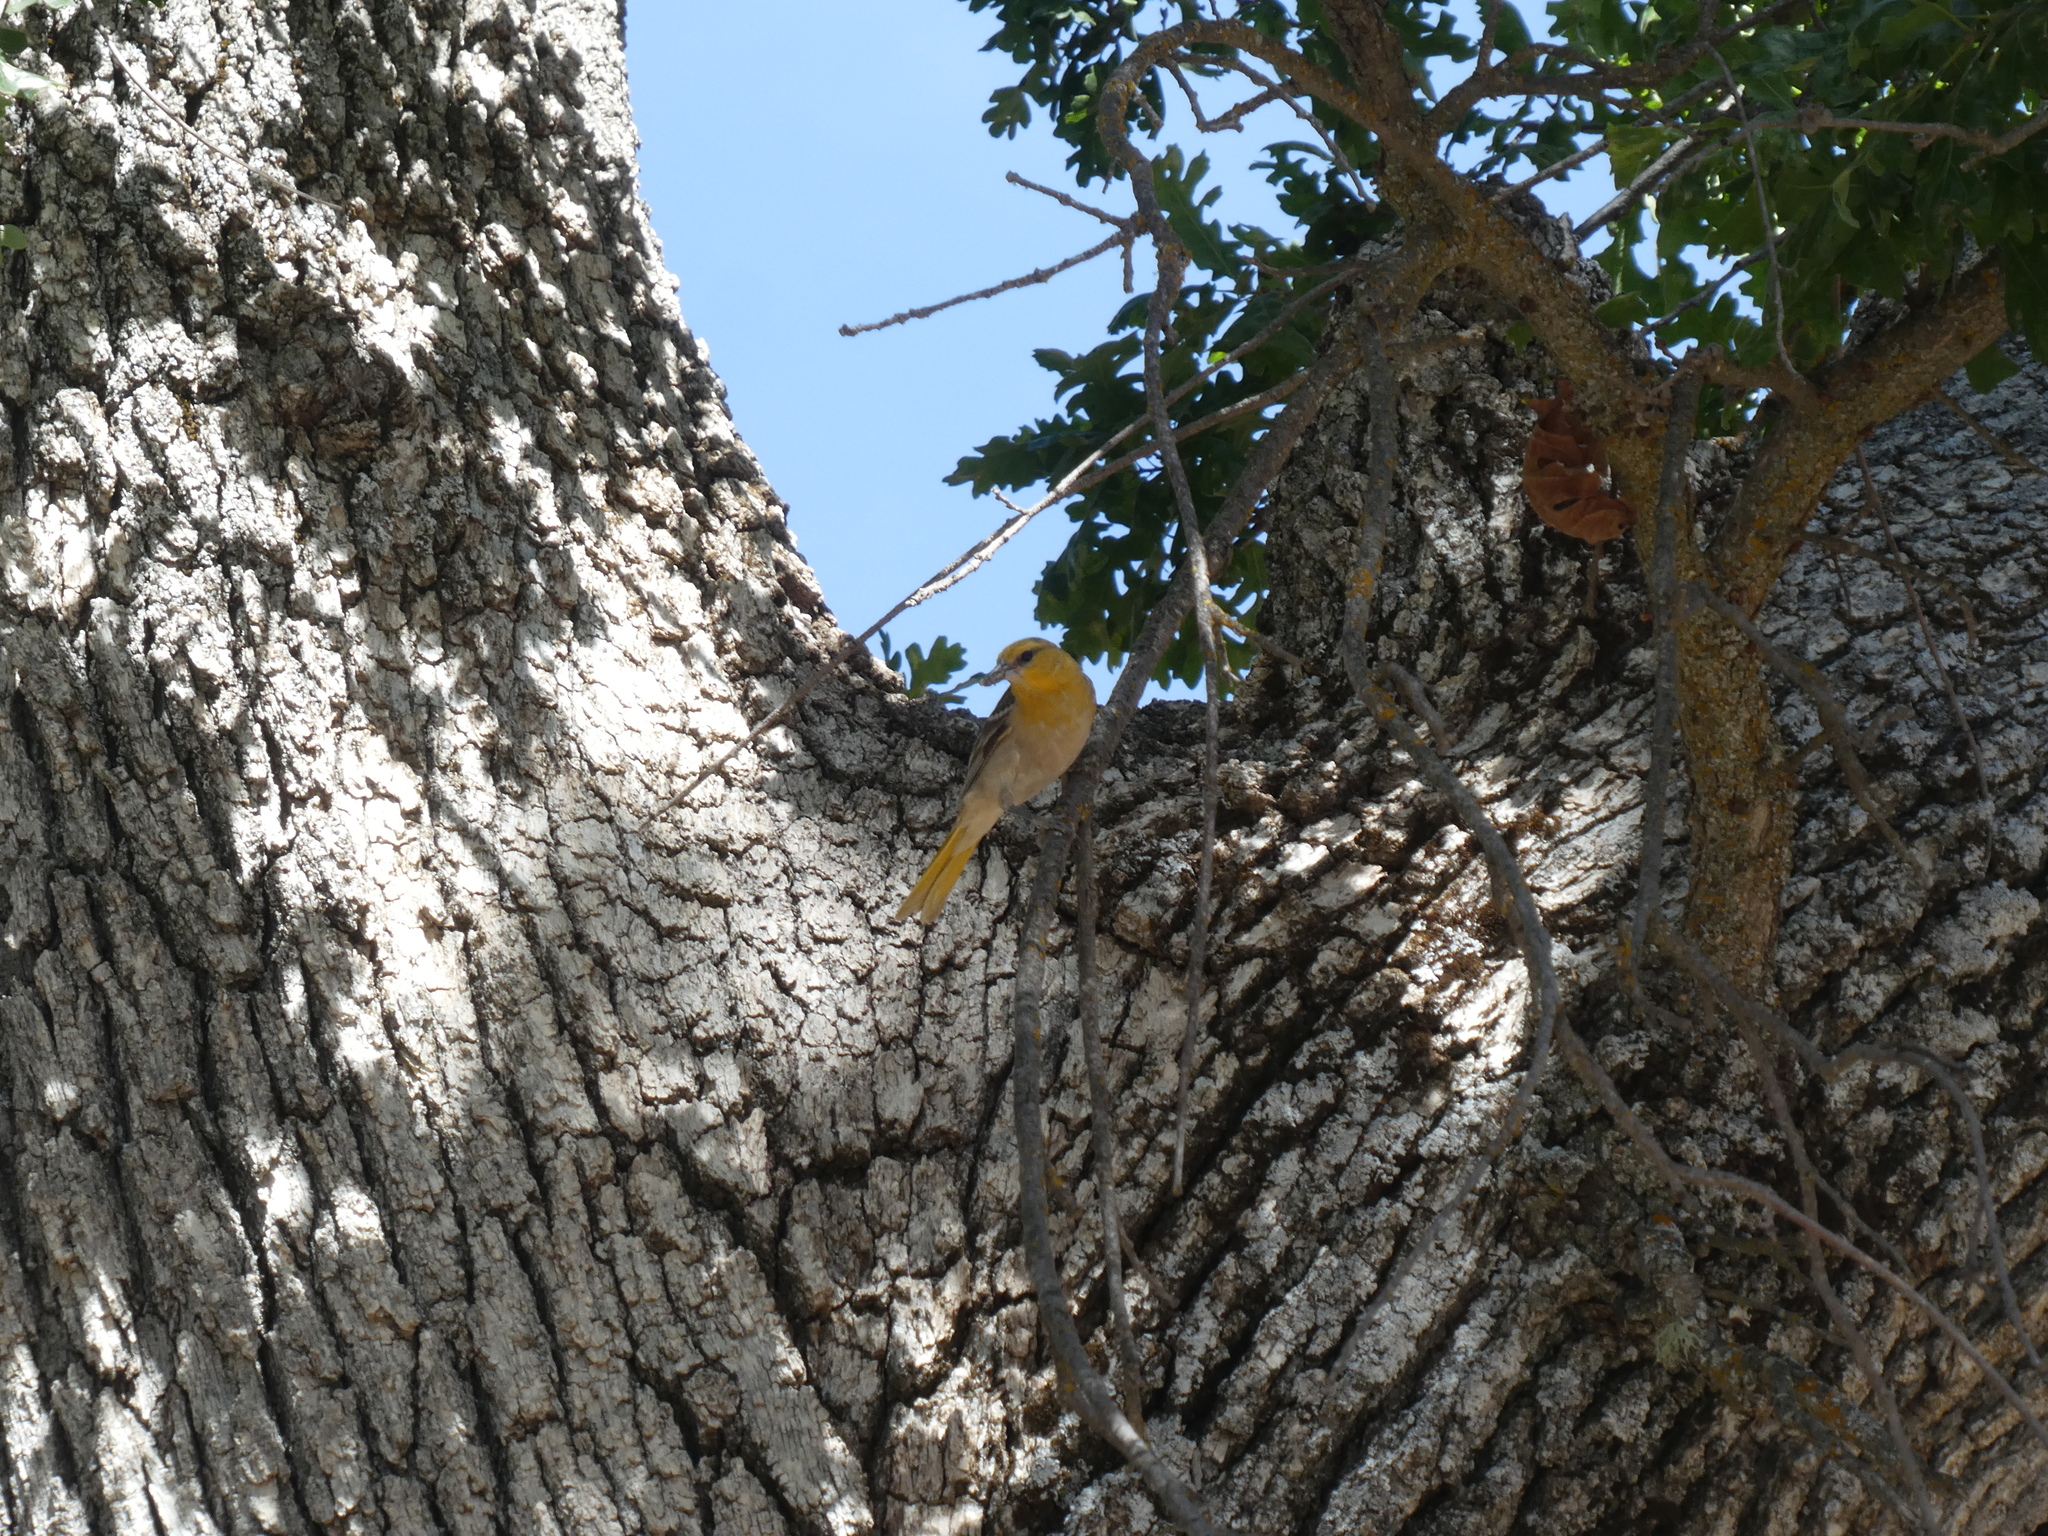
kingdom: Animalia
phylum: Chordata
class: Aves
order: Passeriformes
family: Icteridae
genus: Icterus
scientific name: Icterus bullockii
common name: Bullock's oriole
